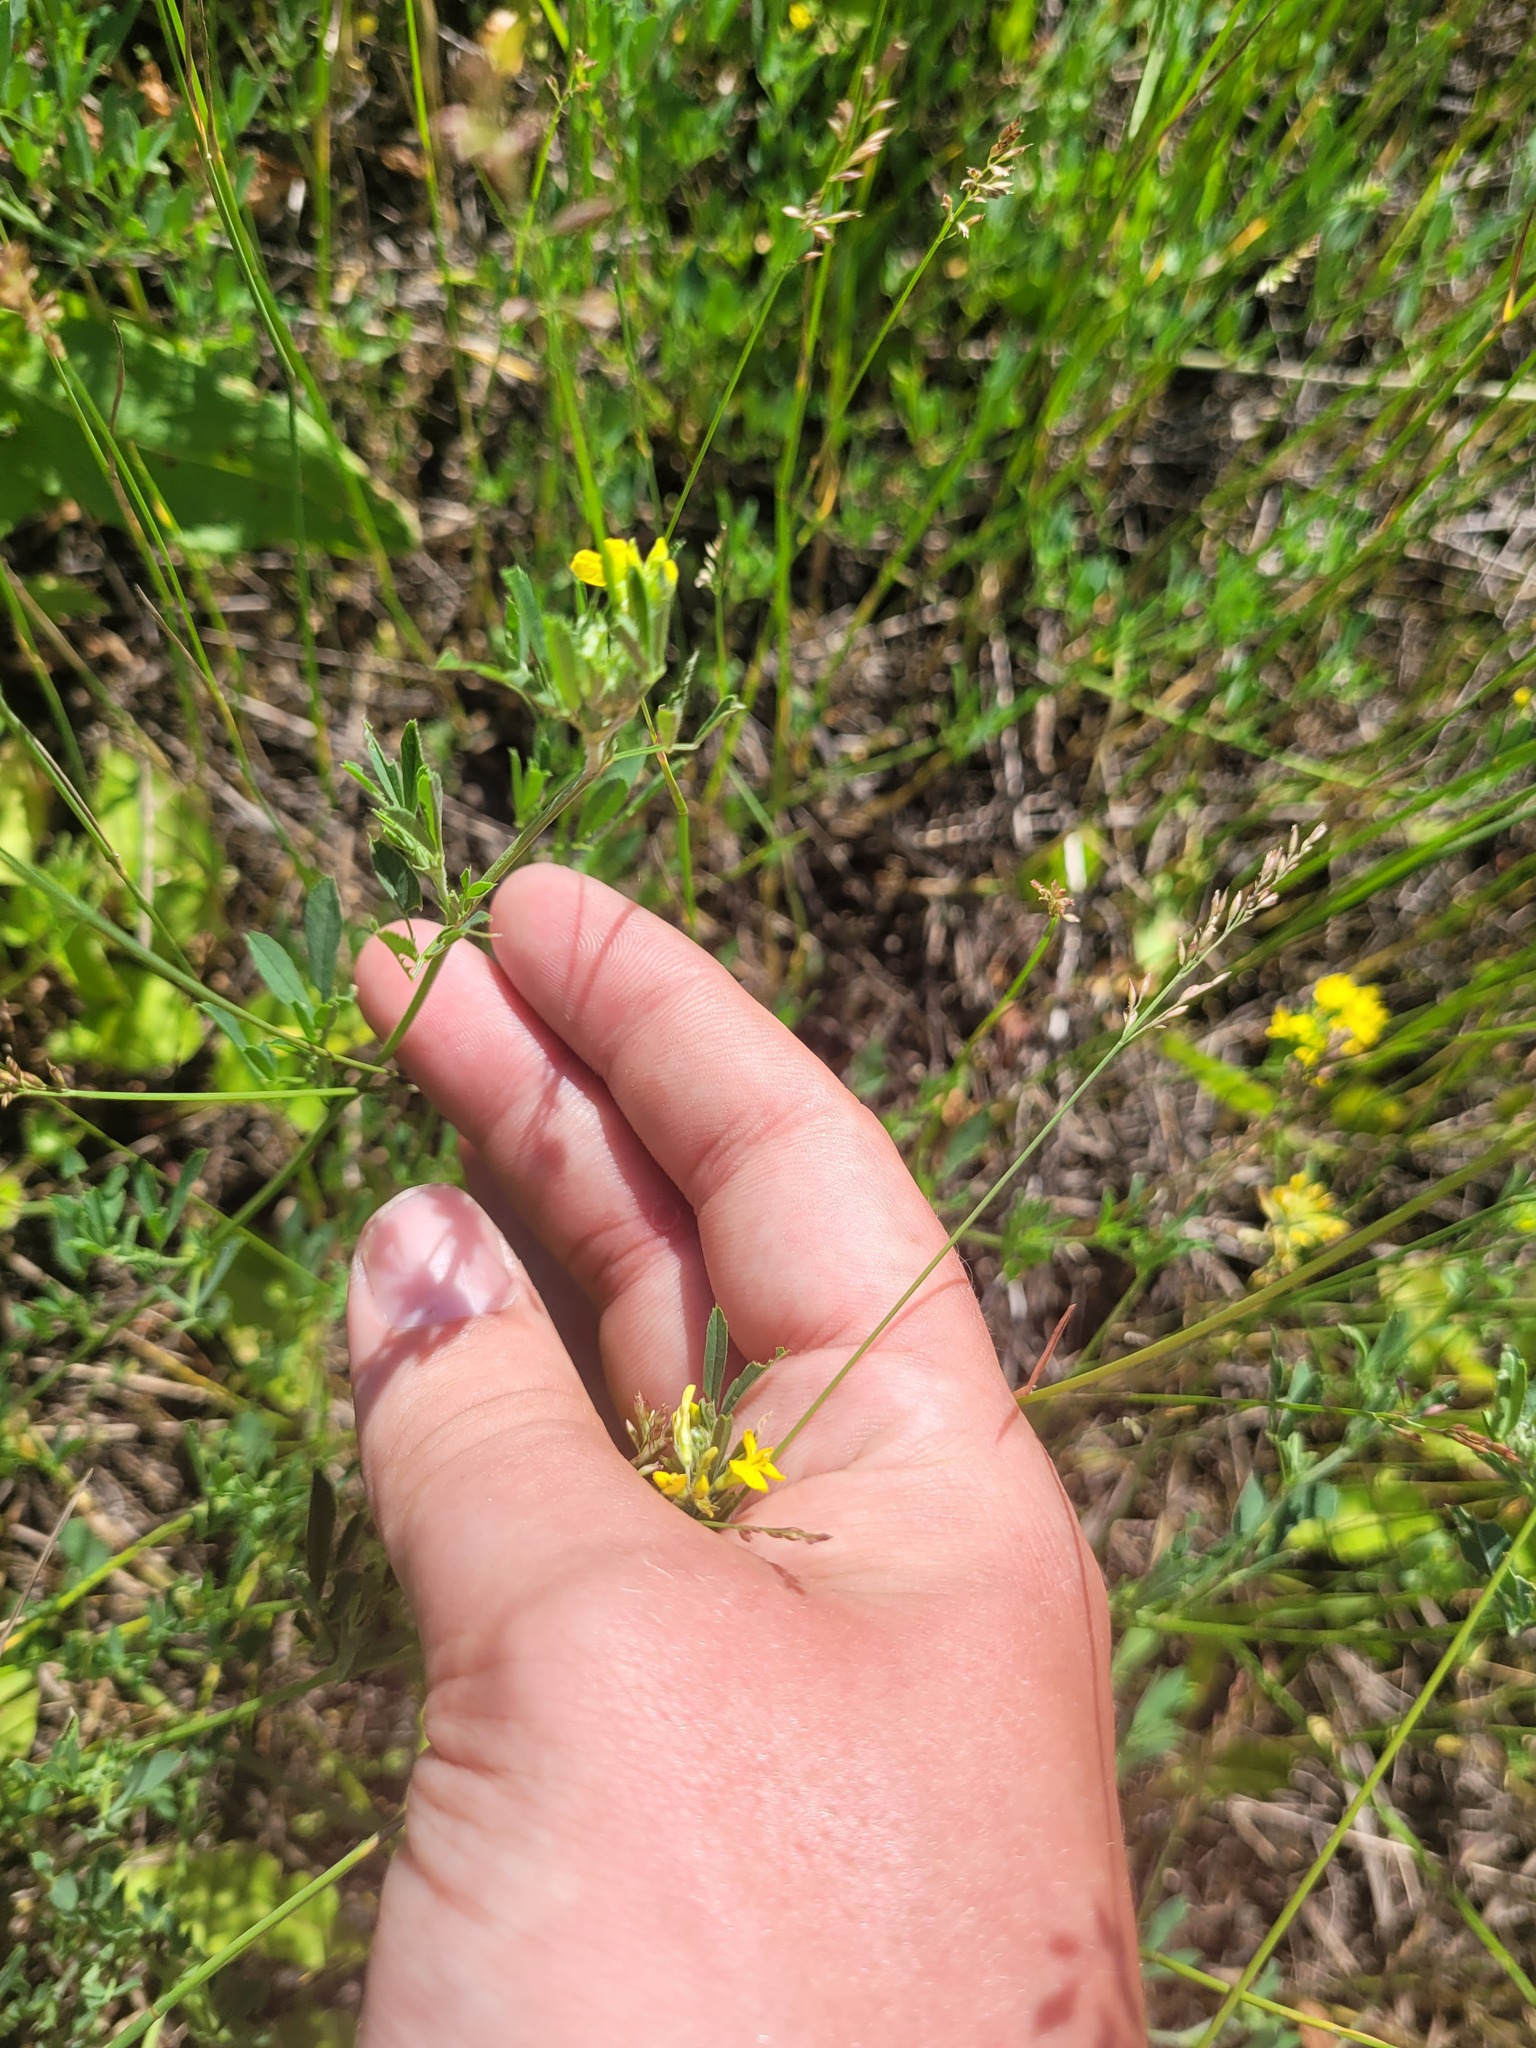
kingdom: Plantae
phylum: Tracheophyta
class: Magnoliopsida
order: Fabales
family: Fabaceae
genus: Medicago
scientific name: Medicago falcata
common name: Sickle medick
